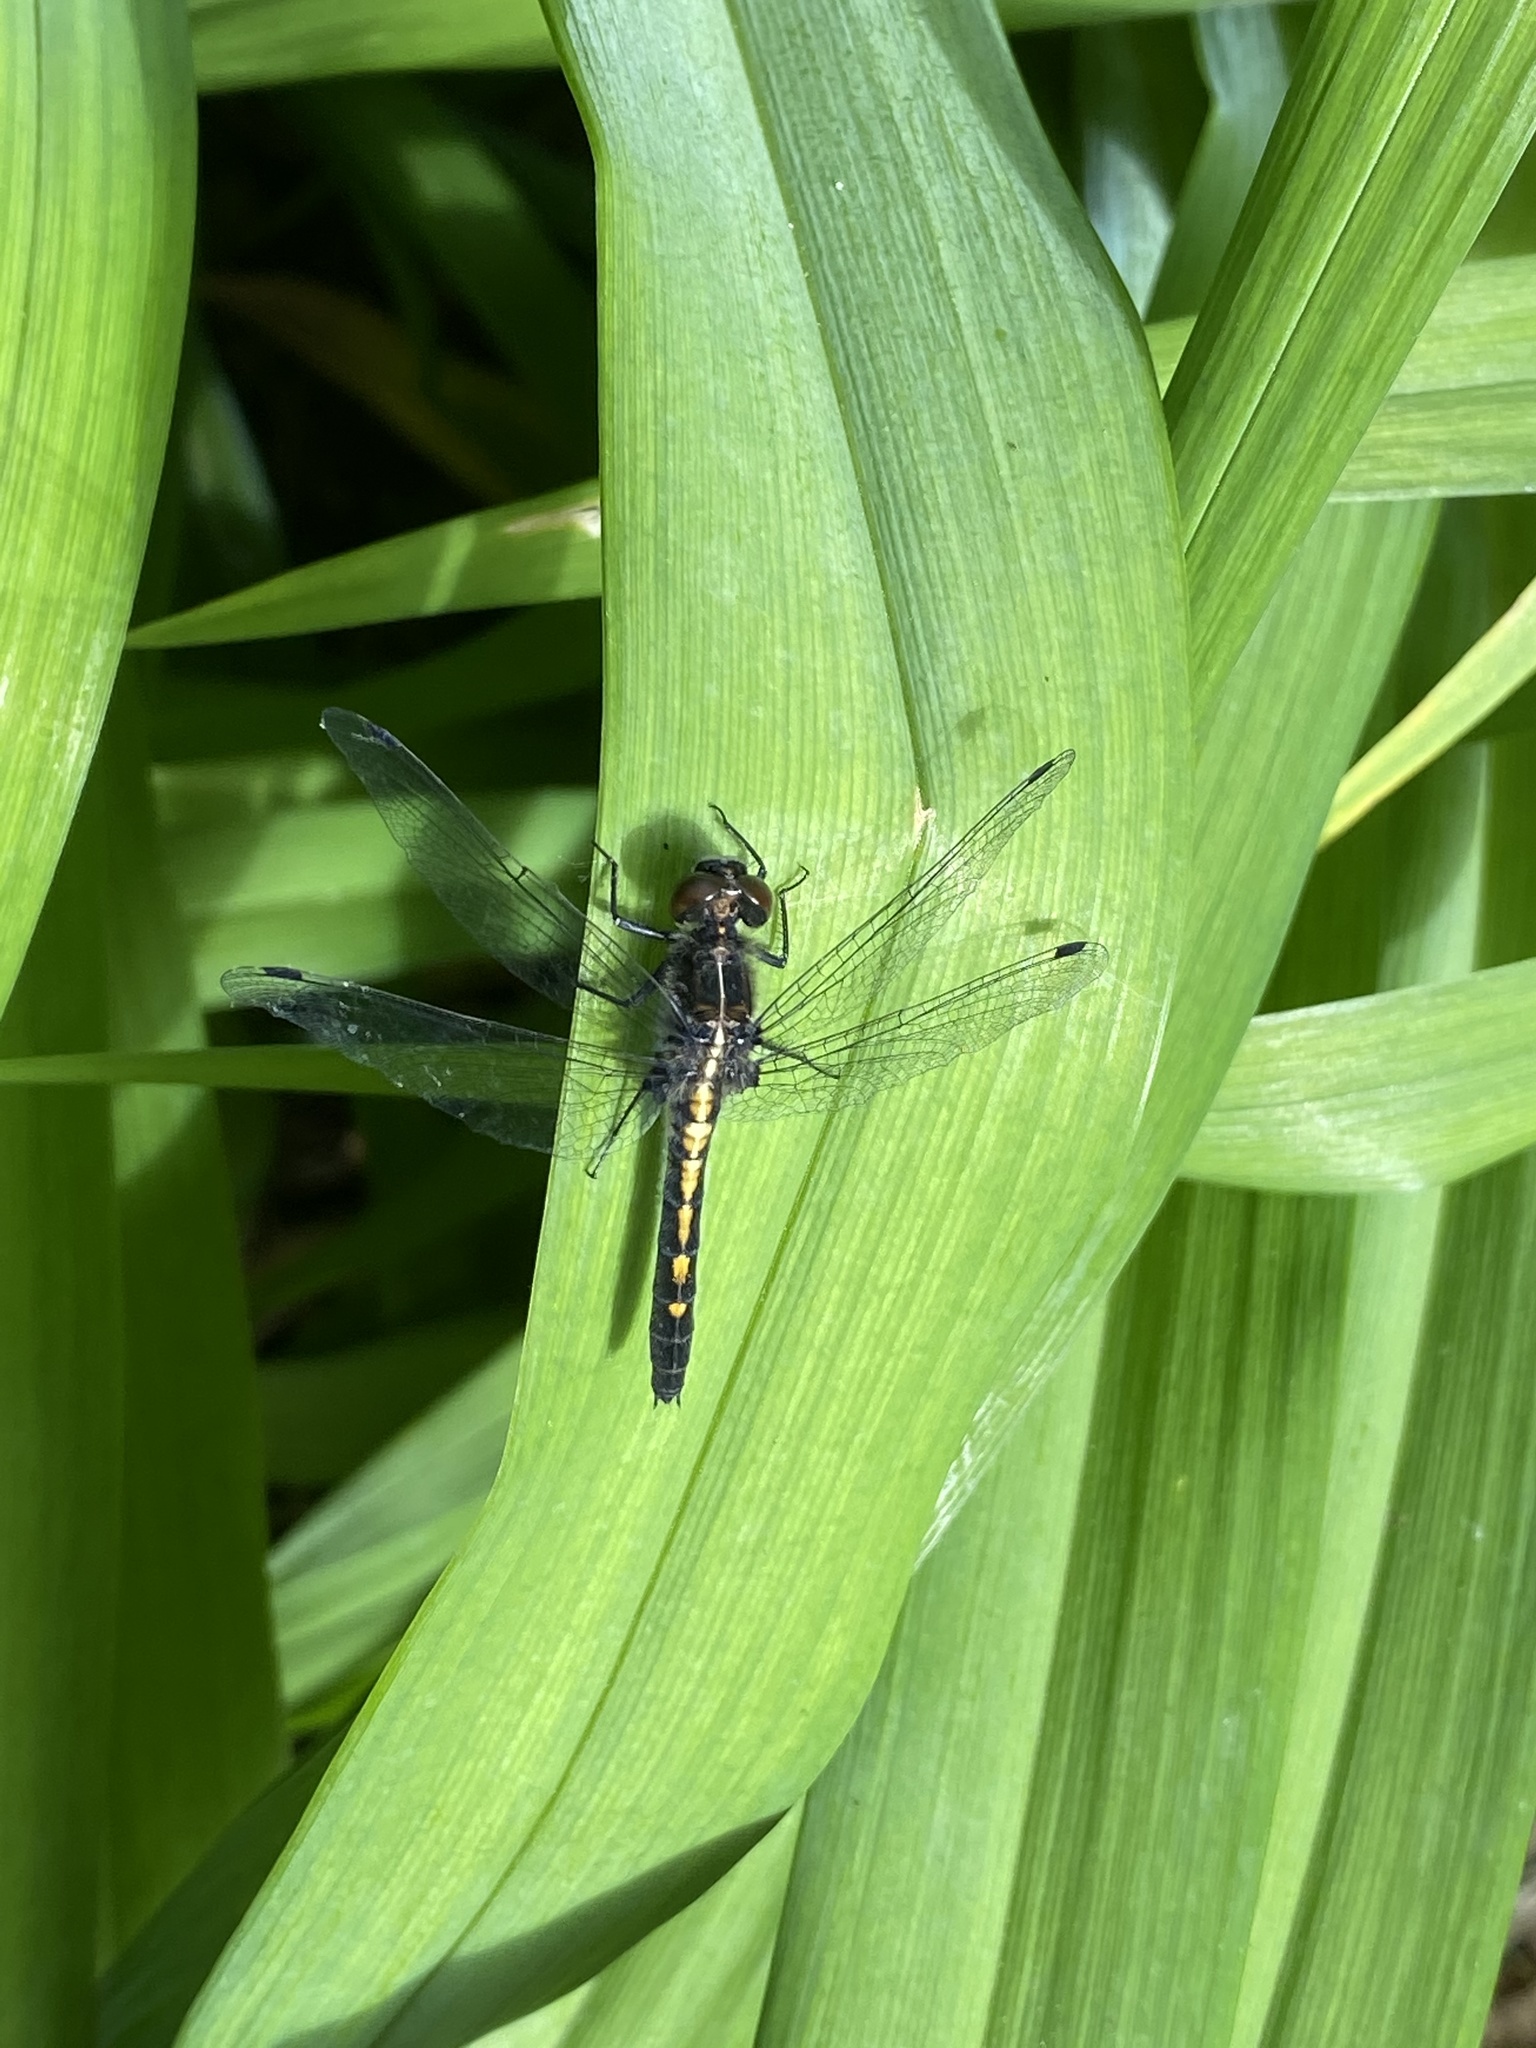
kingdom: Animalia
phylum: Arthropoda
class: Insecta
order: Odonata
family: Libellulidae
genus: Leucorrhinia
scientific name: Leucorrhinia intacta
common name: Dot-tailed whiteface
